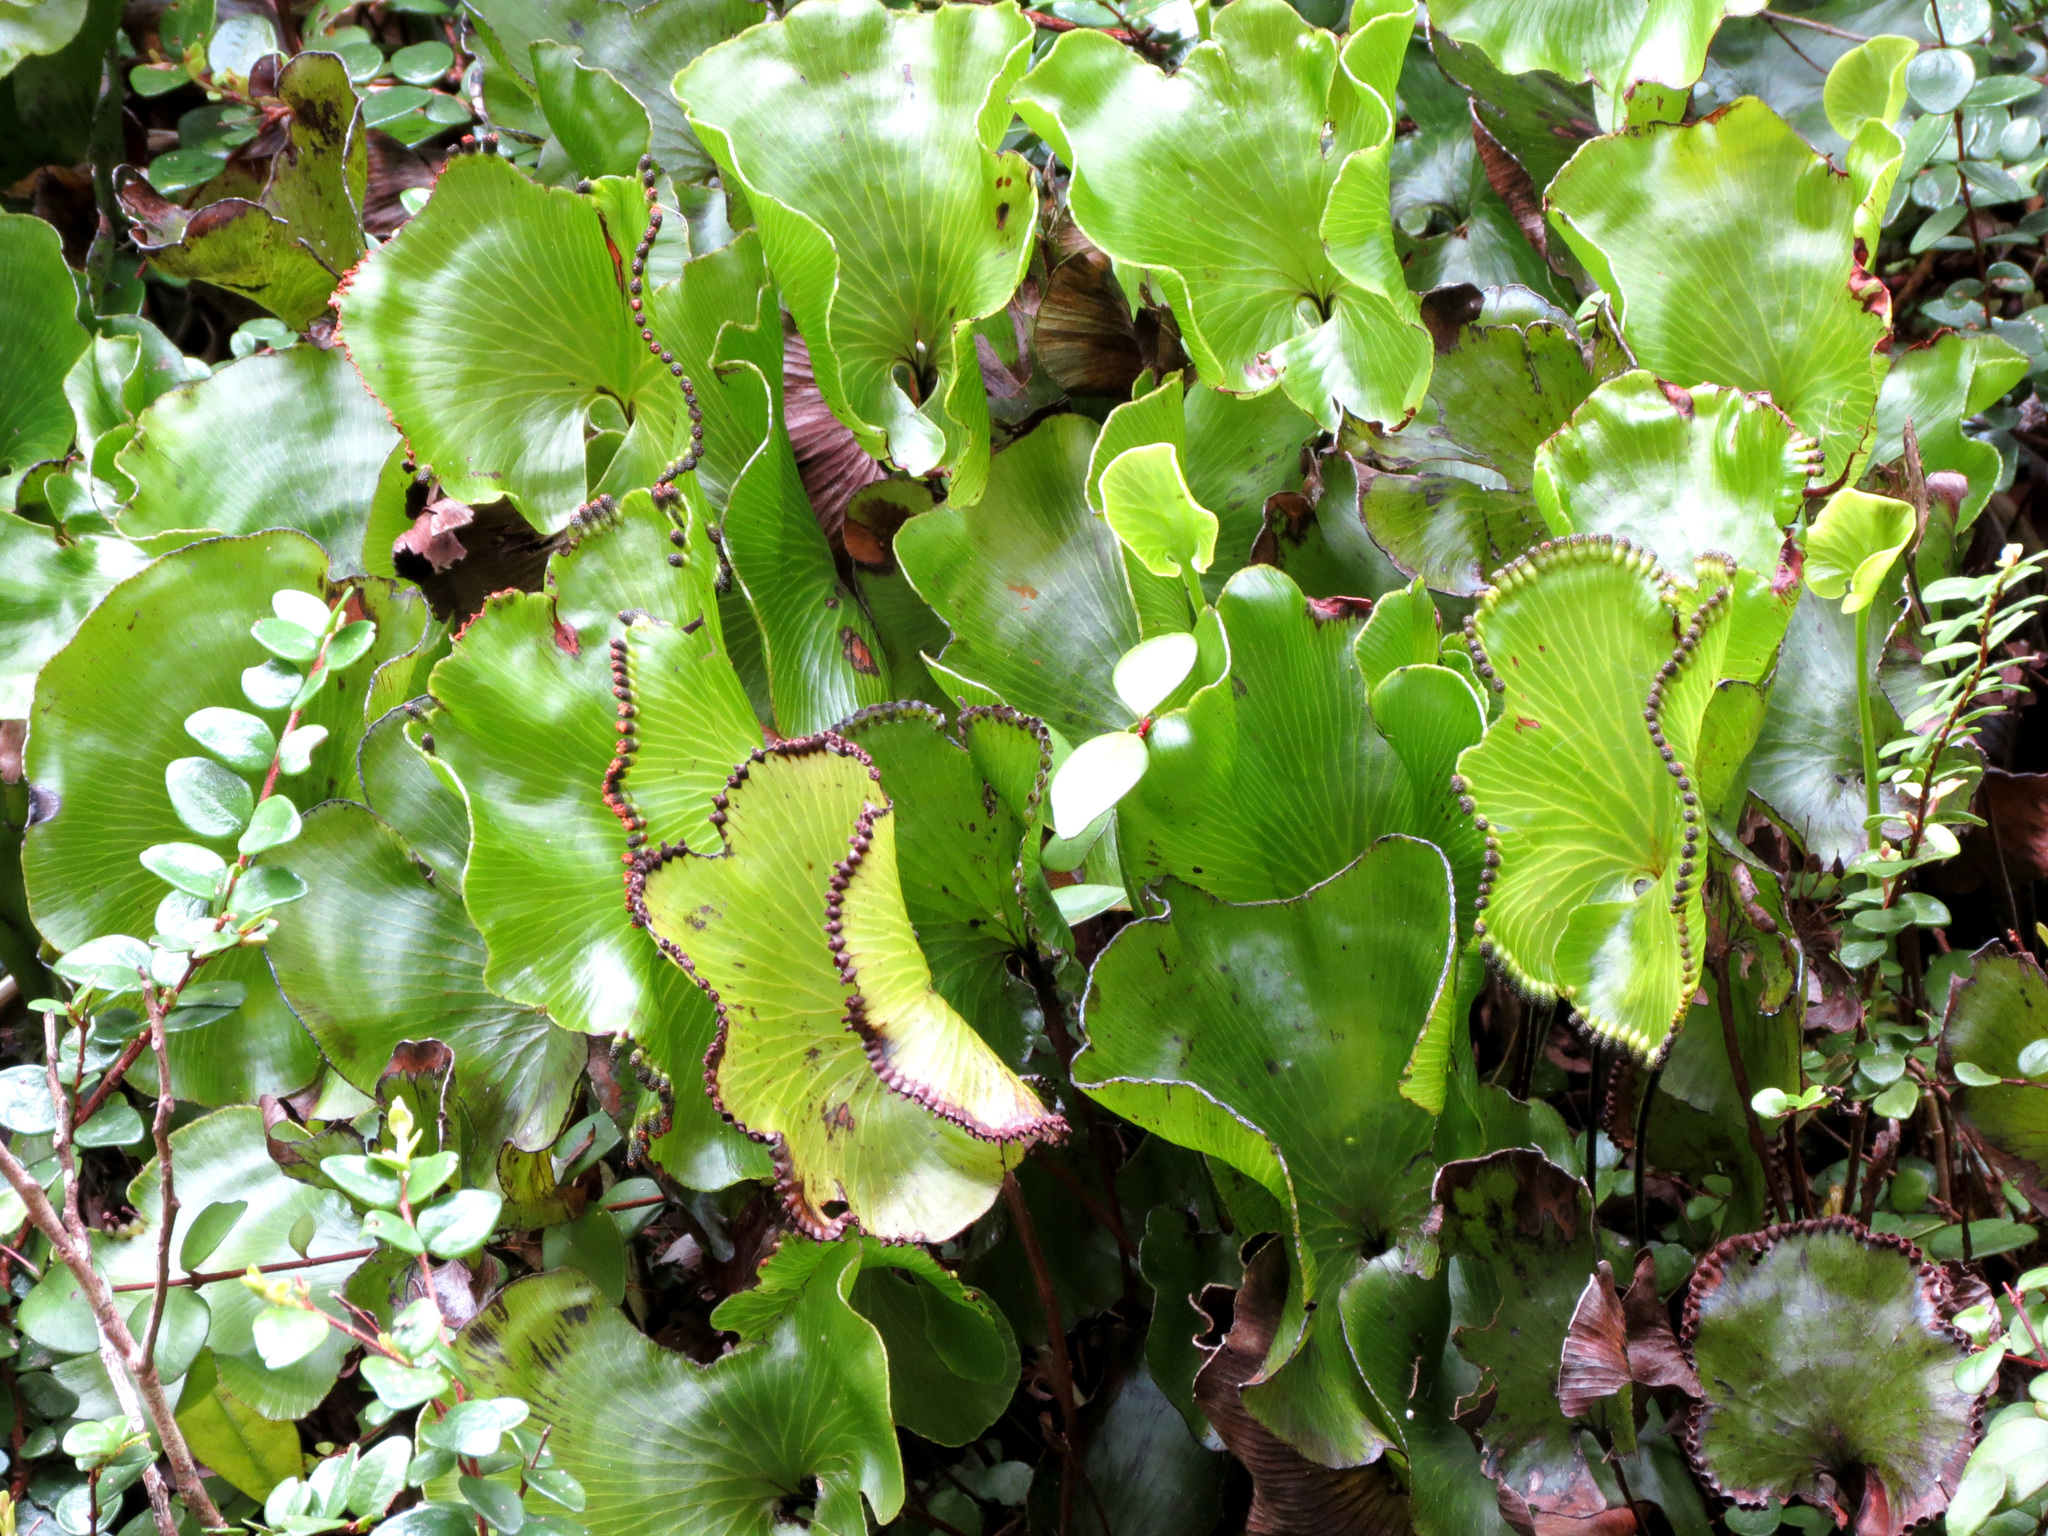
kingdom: Plantae
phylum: Tracheophyta
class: Polypodiopsida
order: Hymenophyllales
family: Hymenophyllaceae
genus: Hymenophyllum
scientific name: Hymenophyllum nephrophyllum
